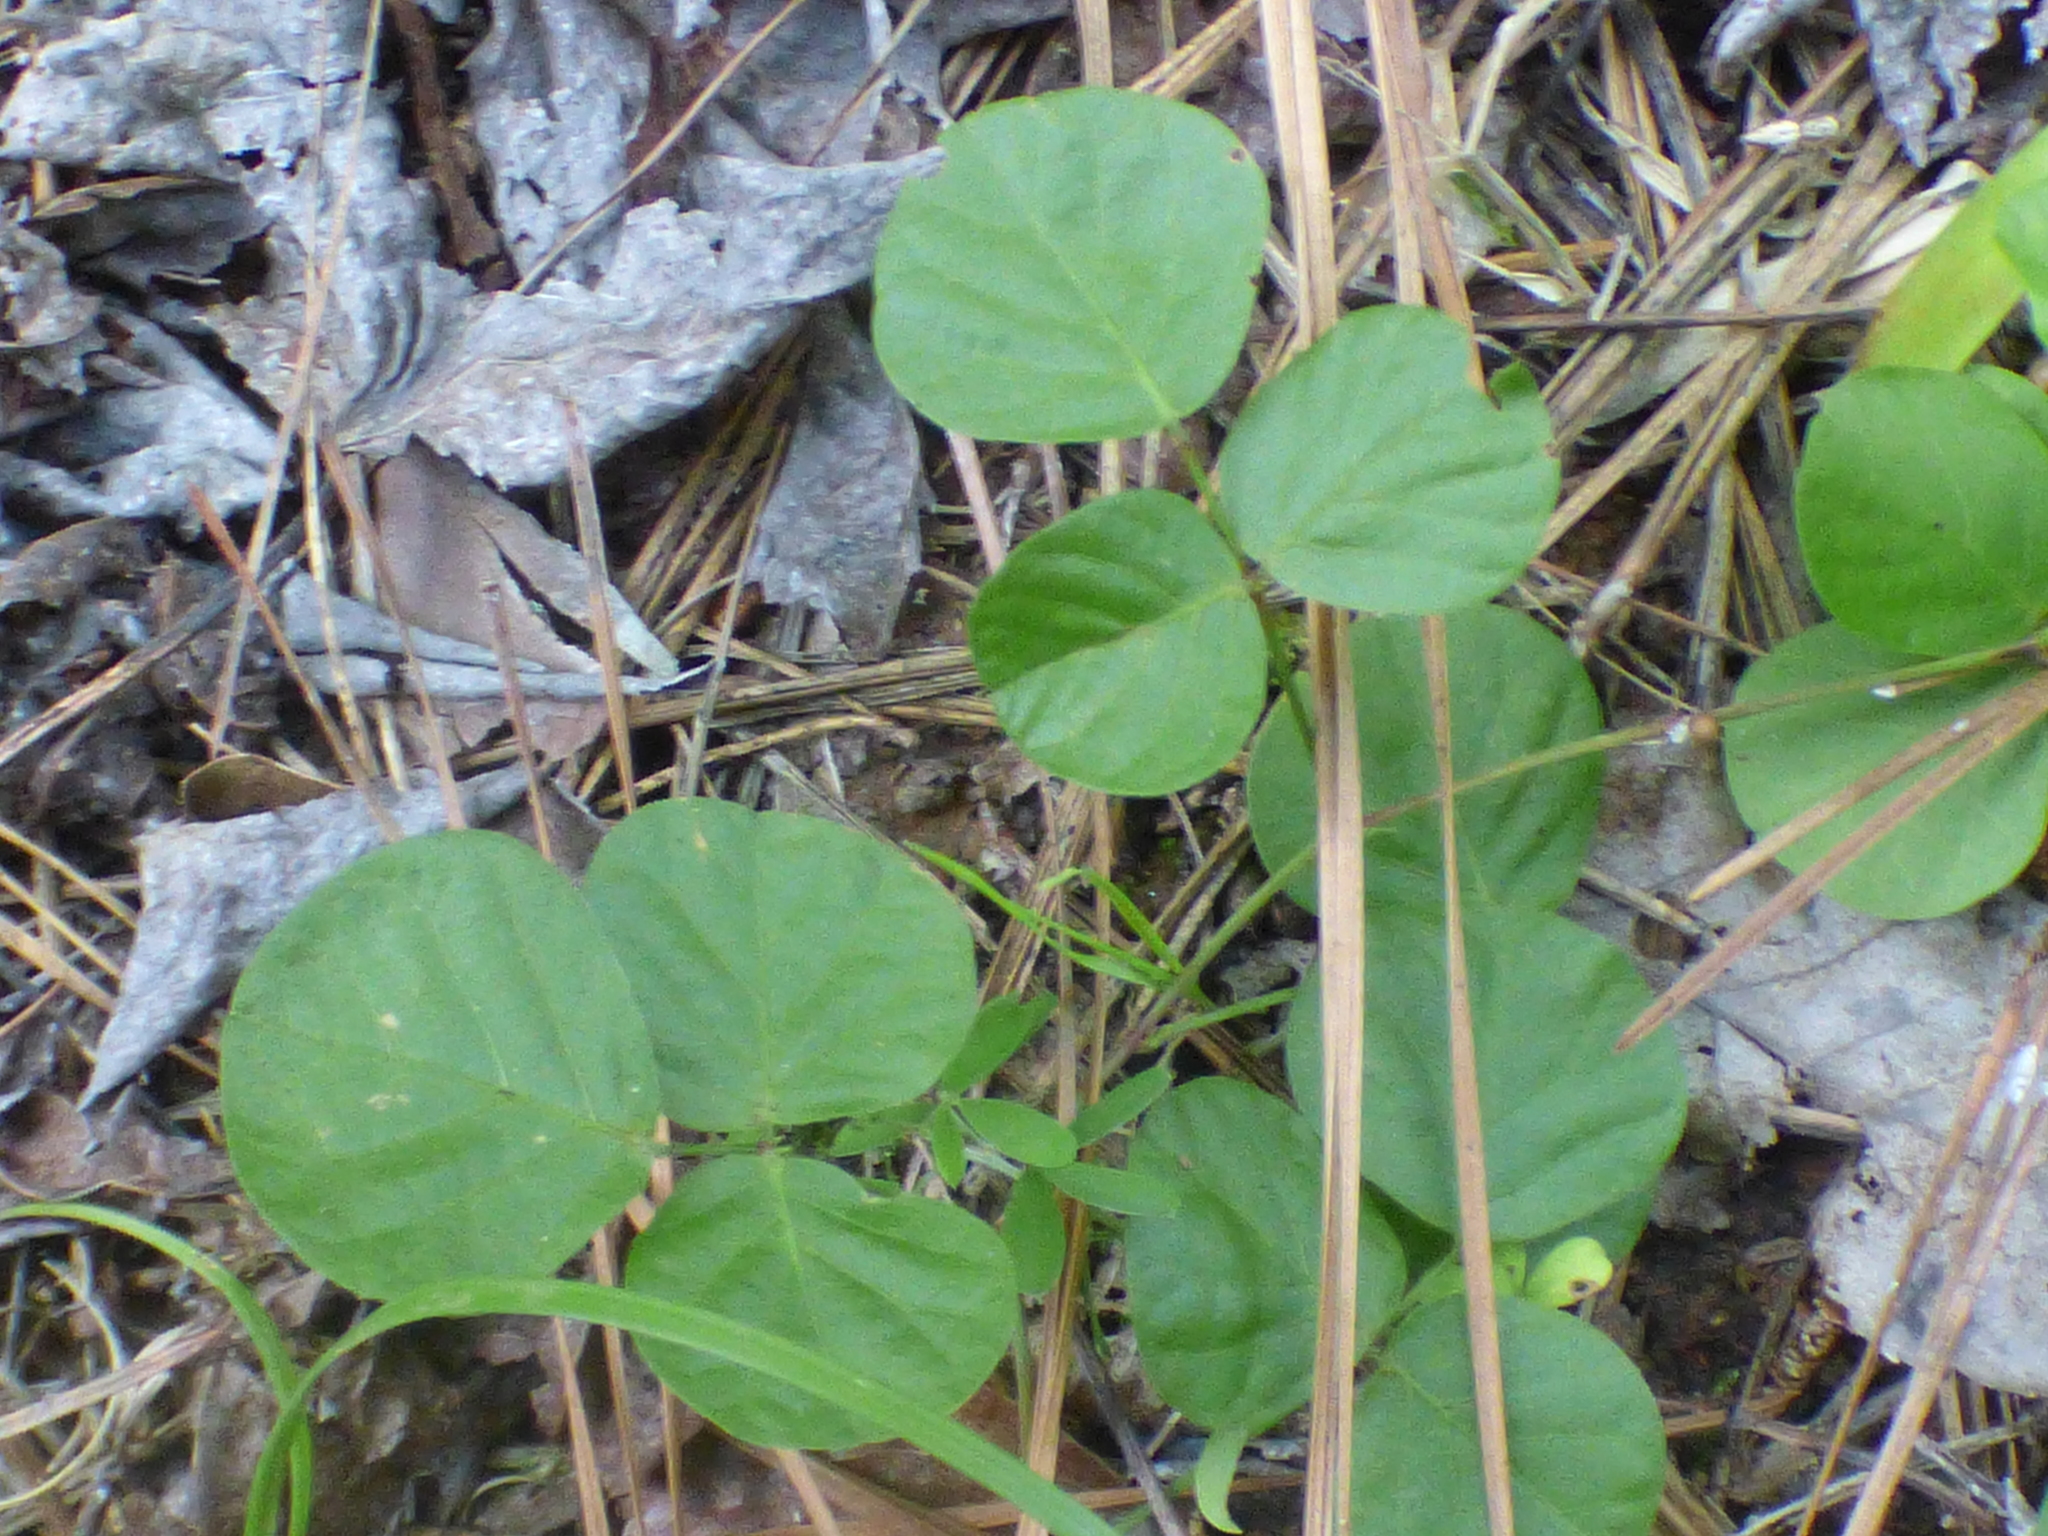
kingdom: Plantae
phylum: Tracheophyta
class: Magnoliopsida
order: Fabales
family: Fabaceae
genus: Desmodium
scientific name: Desmodium rotundifolium
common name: Dollarleaf
